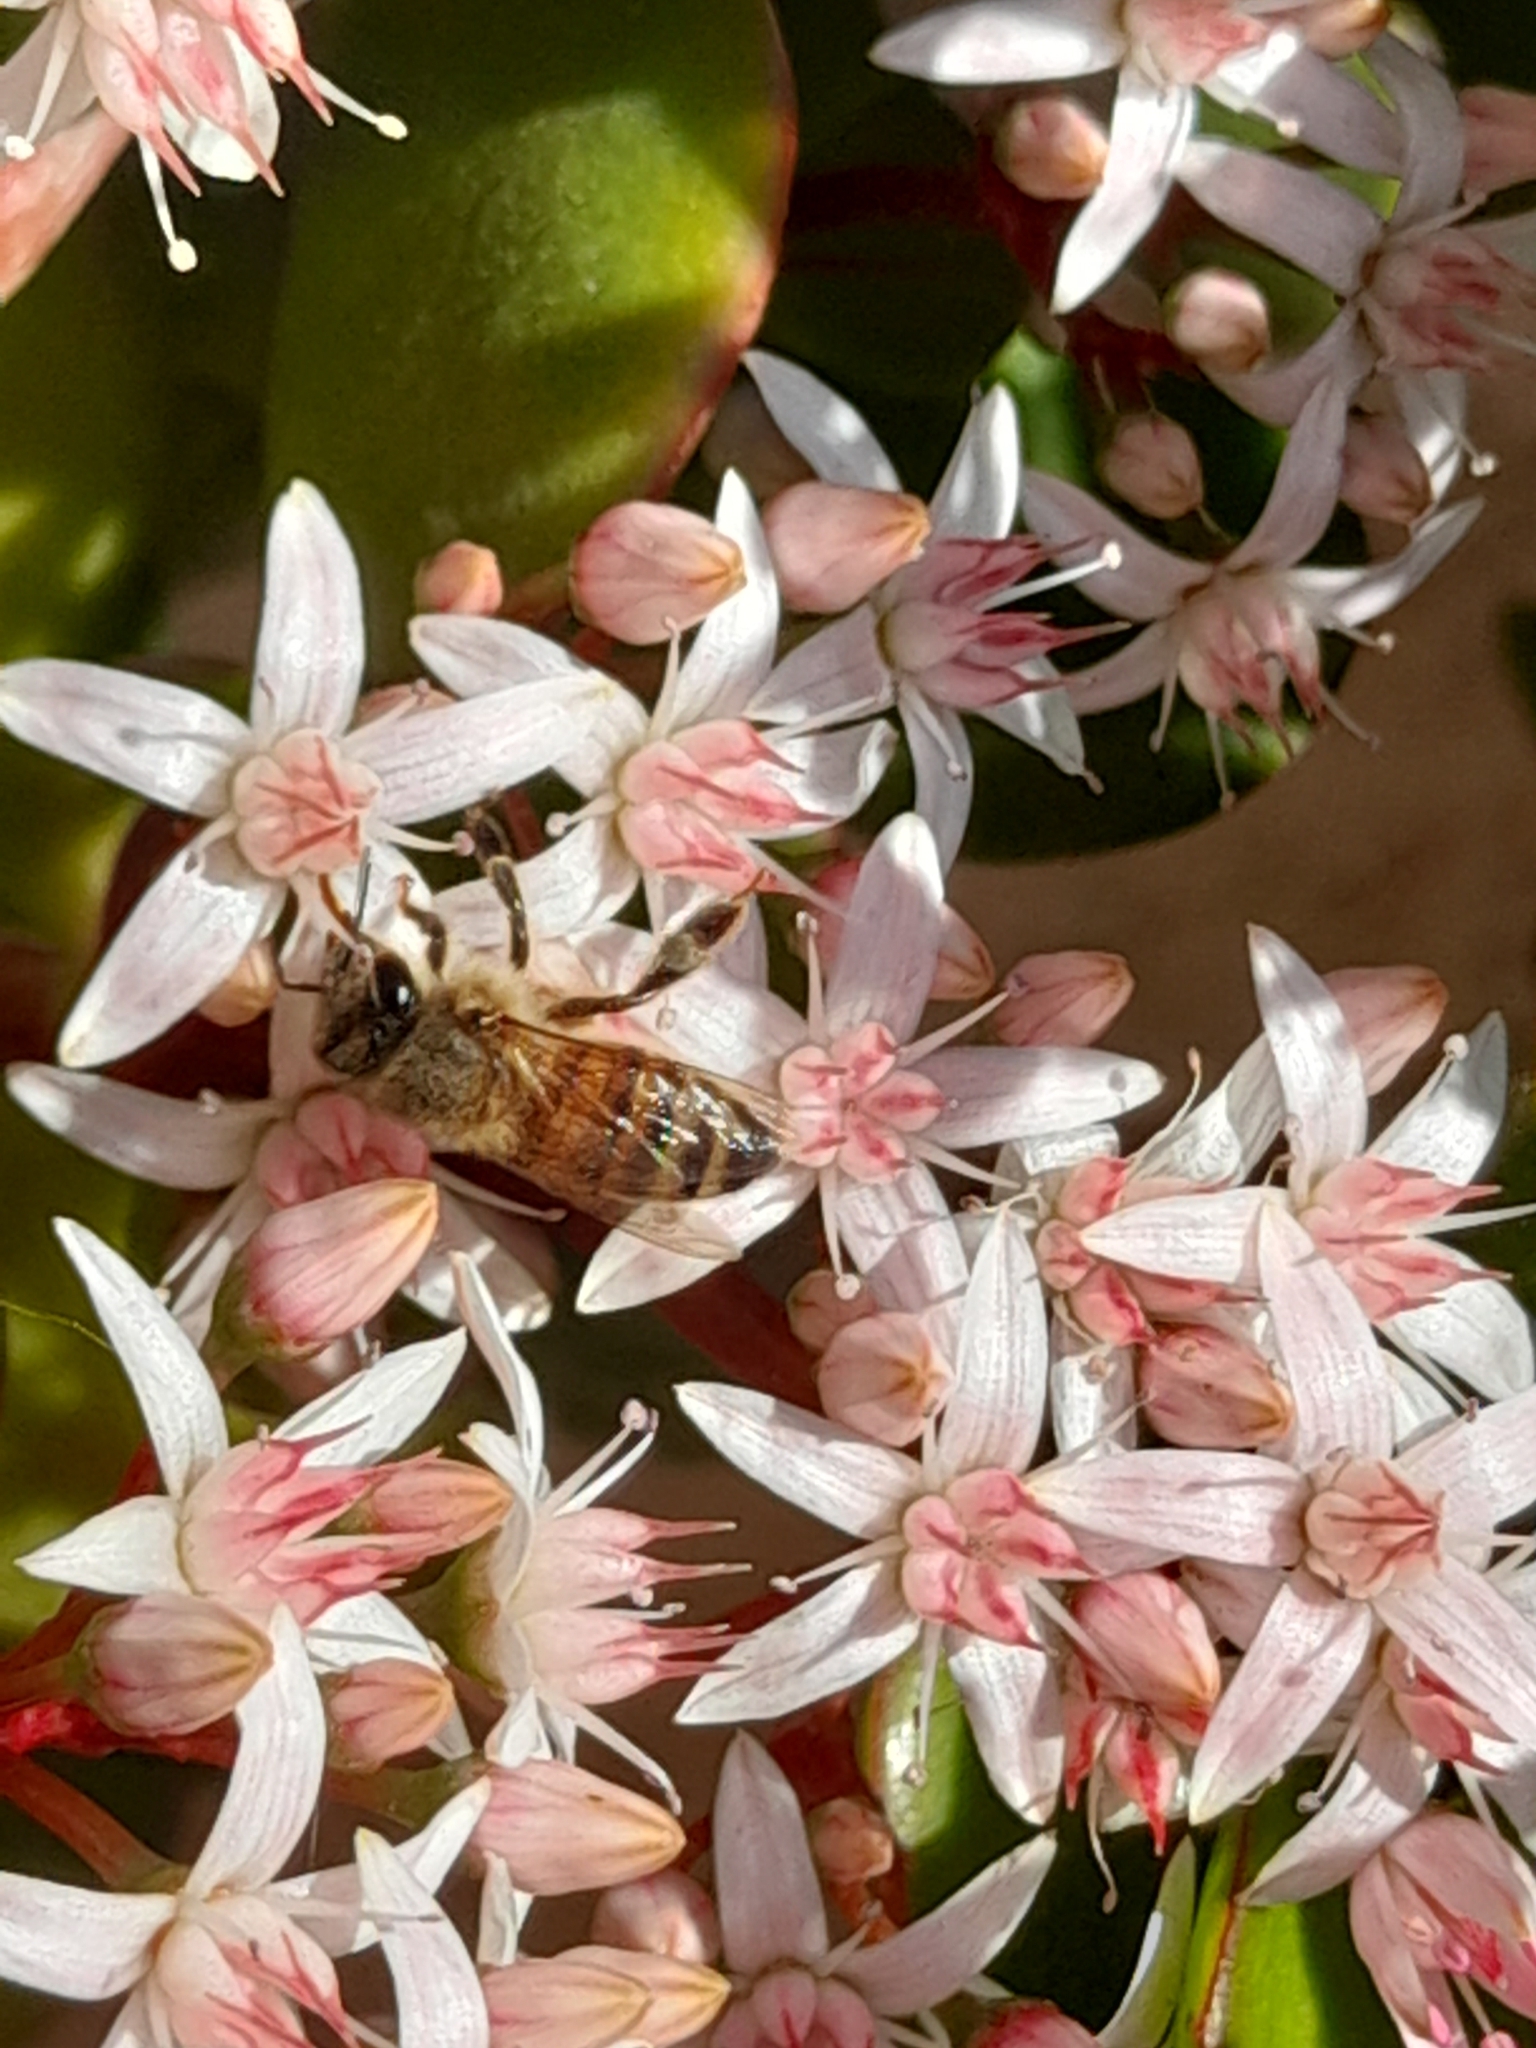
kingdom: Animalia
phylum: Arthropoda
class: Insecta
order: Hymenoptera
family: Apidae
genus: Apis
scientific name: Apis mellifera
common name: Honey bee
